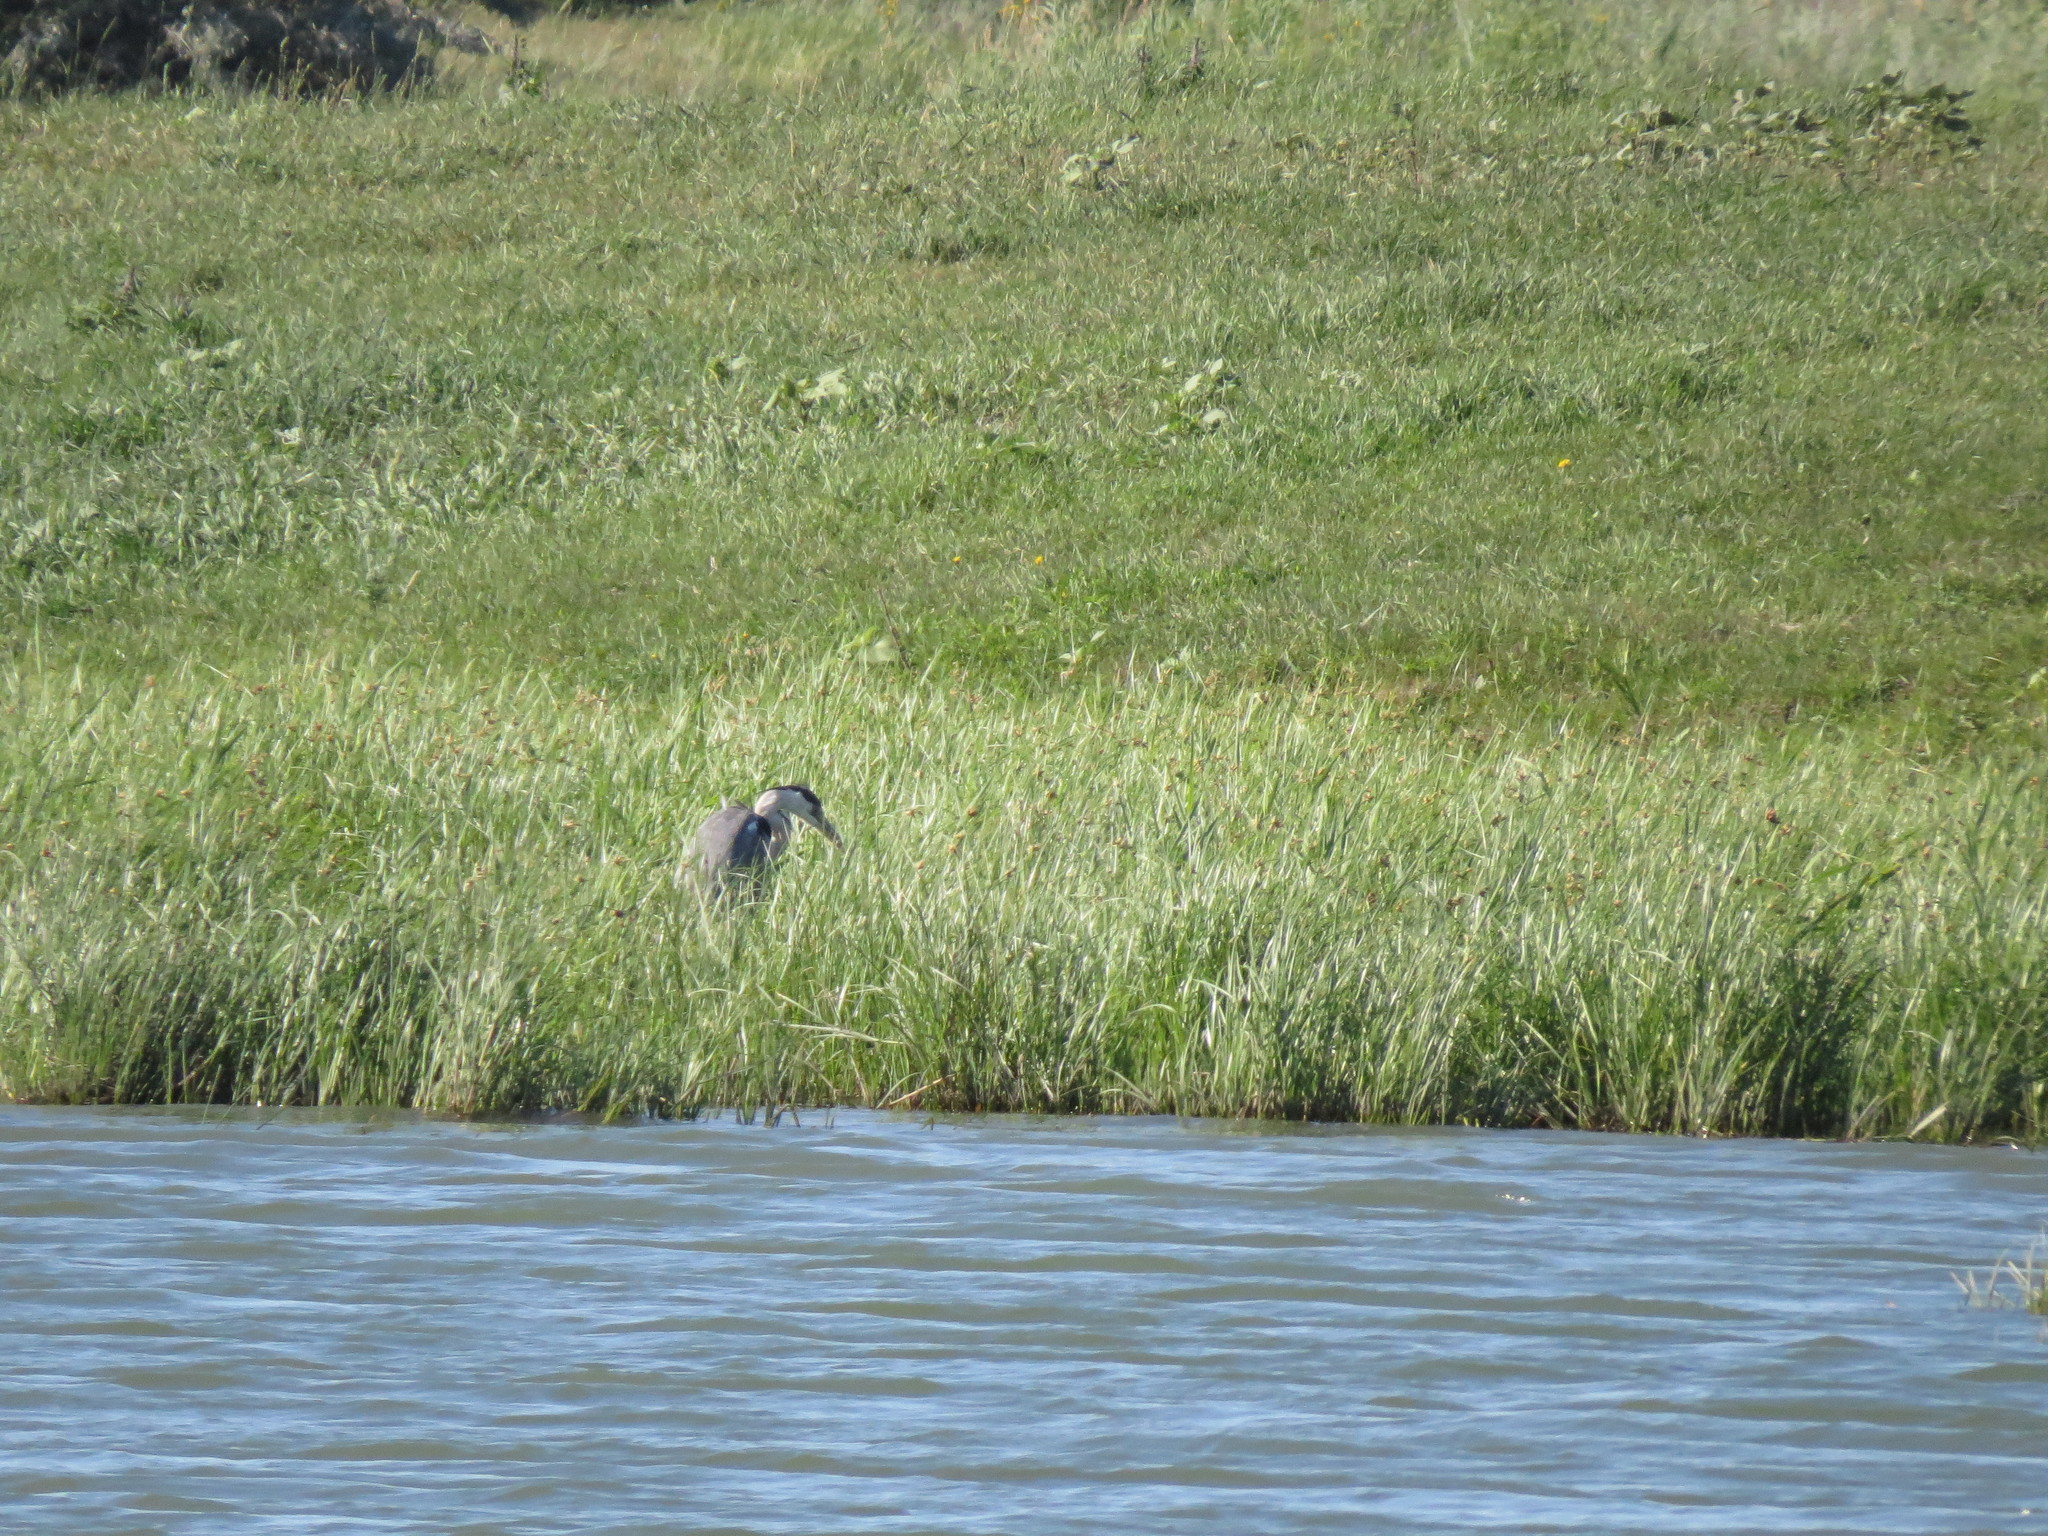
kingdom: Animalia
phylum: Chordata
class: Aves
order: Pelecaniformes
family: Ardeidae
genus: Ardea
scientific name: Ardea cinerea
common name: Grey heron
